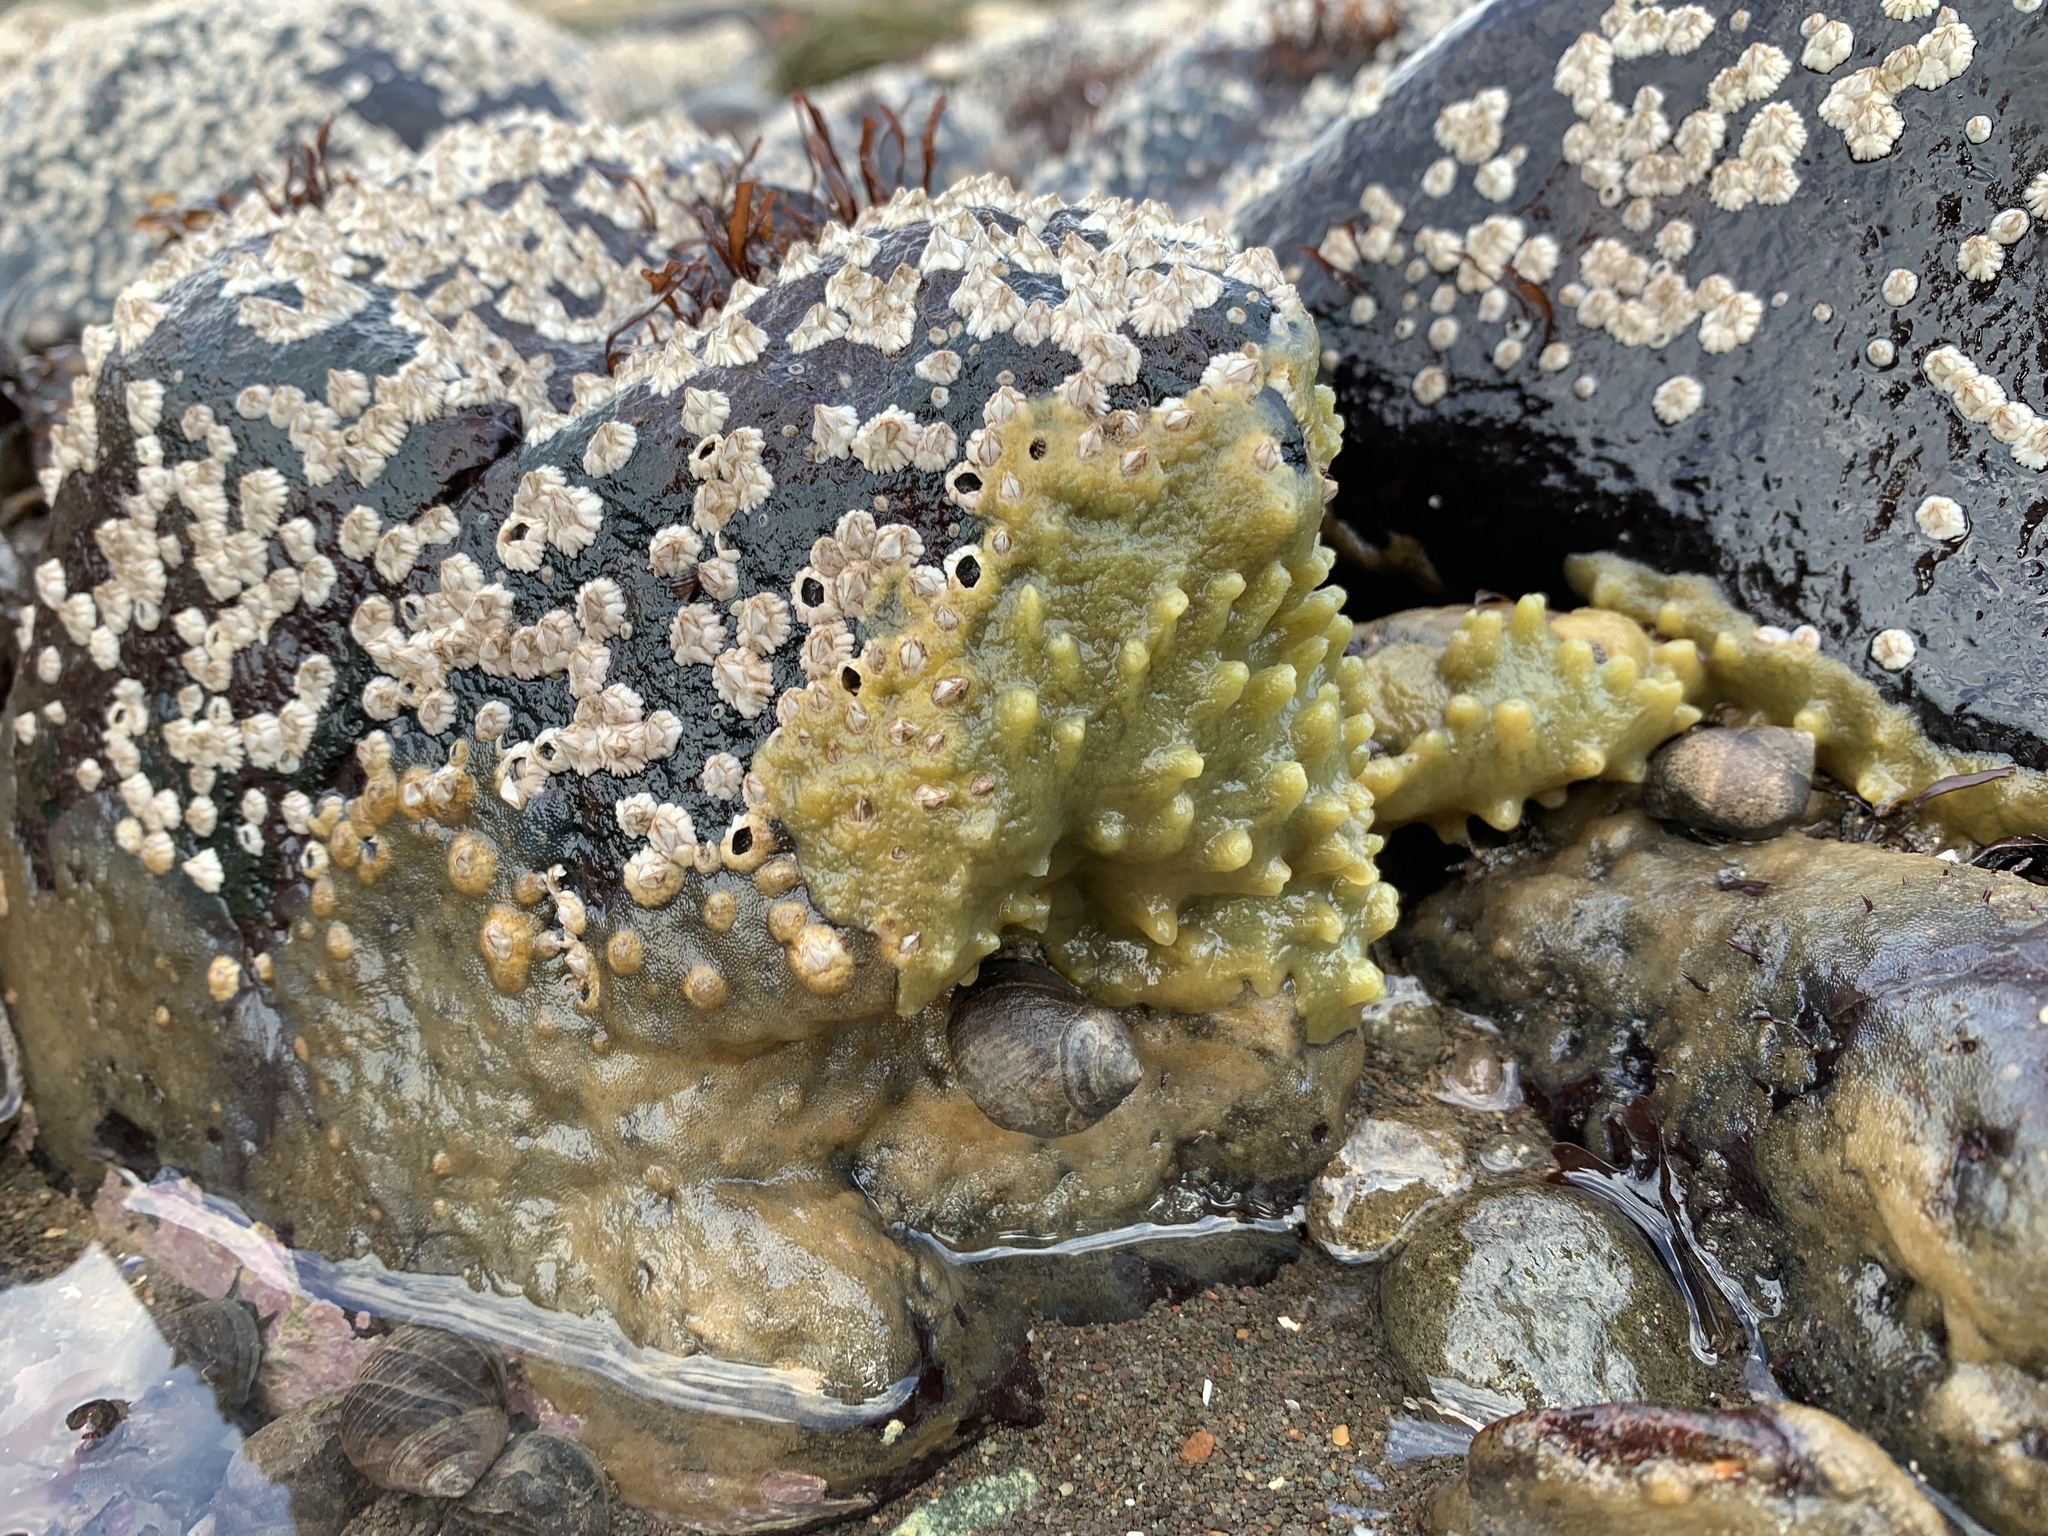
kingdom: Animalia
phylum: Porifera
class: Demospongiae
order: Suberitida
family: Halichondriidae
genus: Halichondria
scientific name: Halichondria panicea
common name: Breadcrumb sponge
